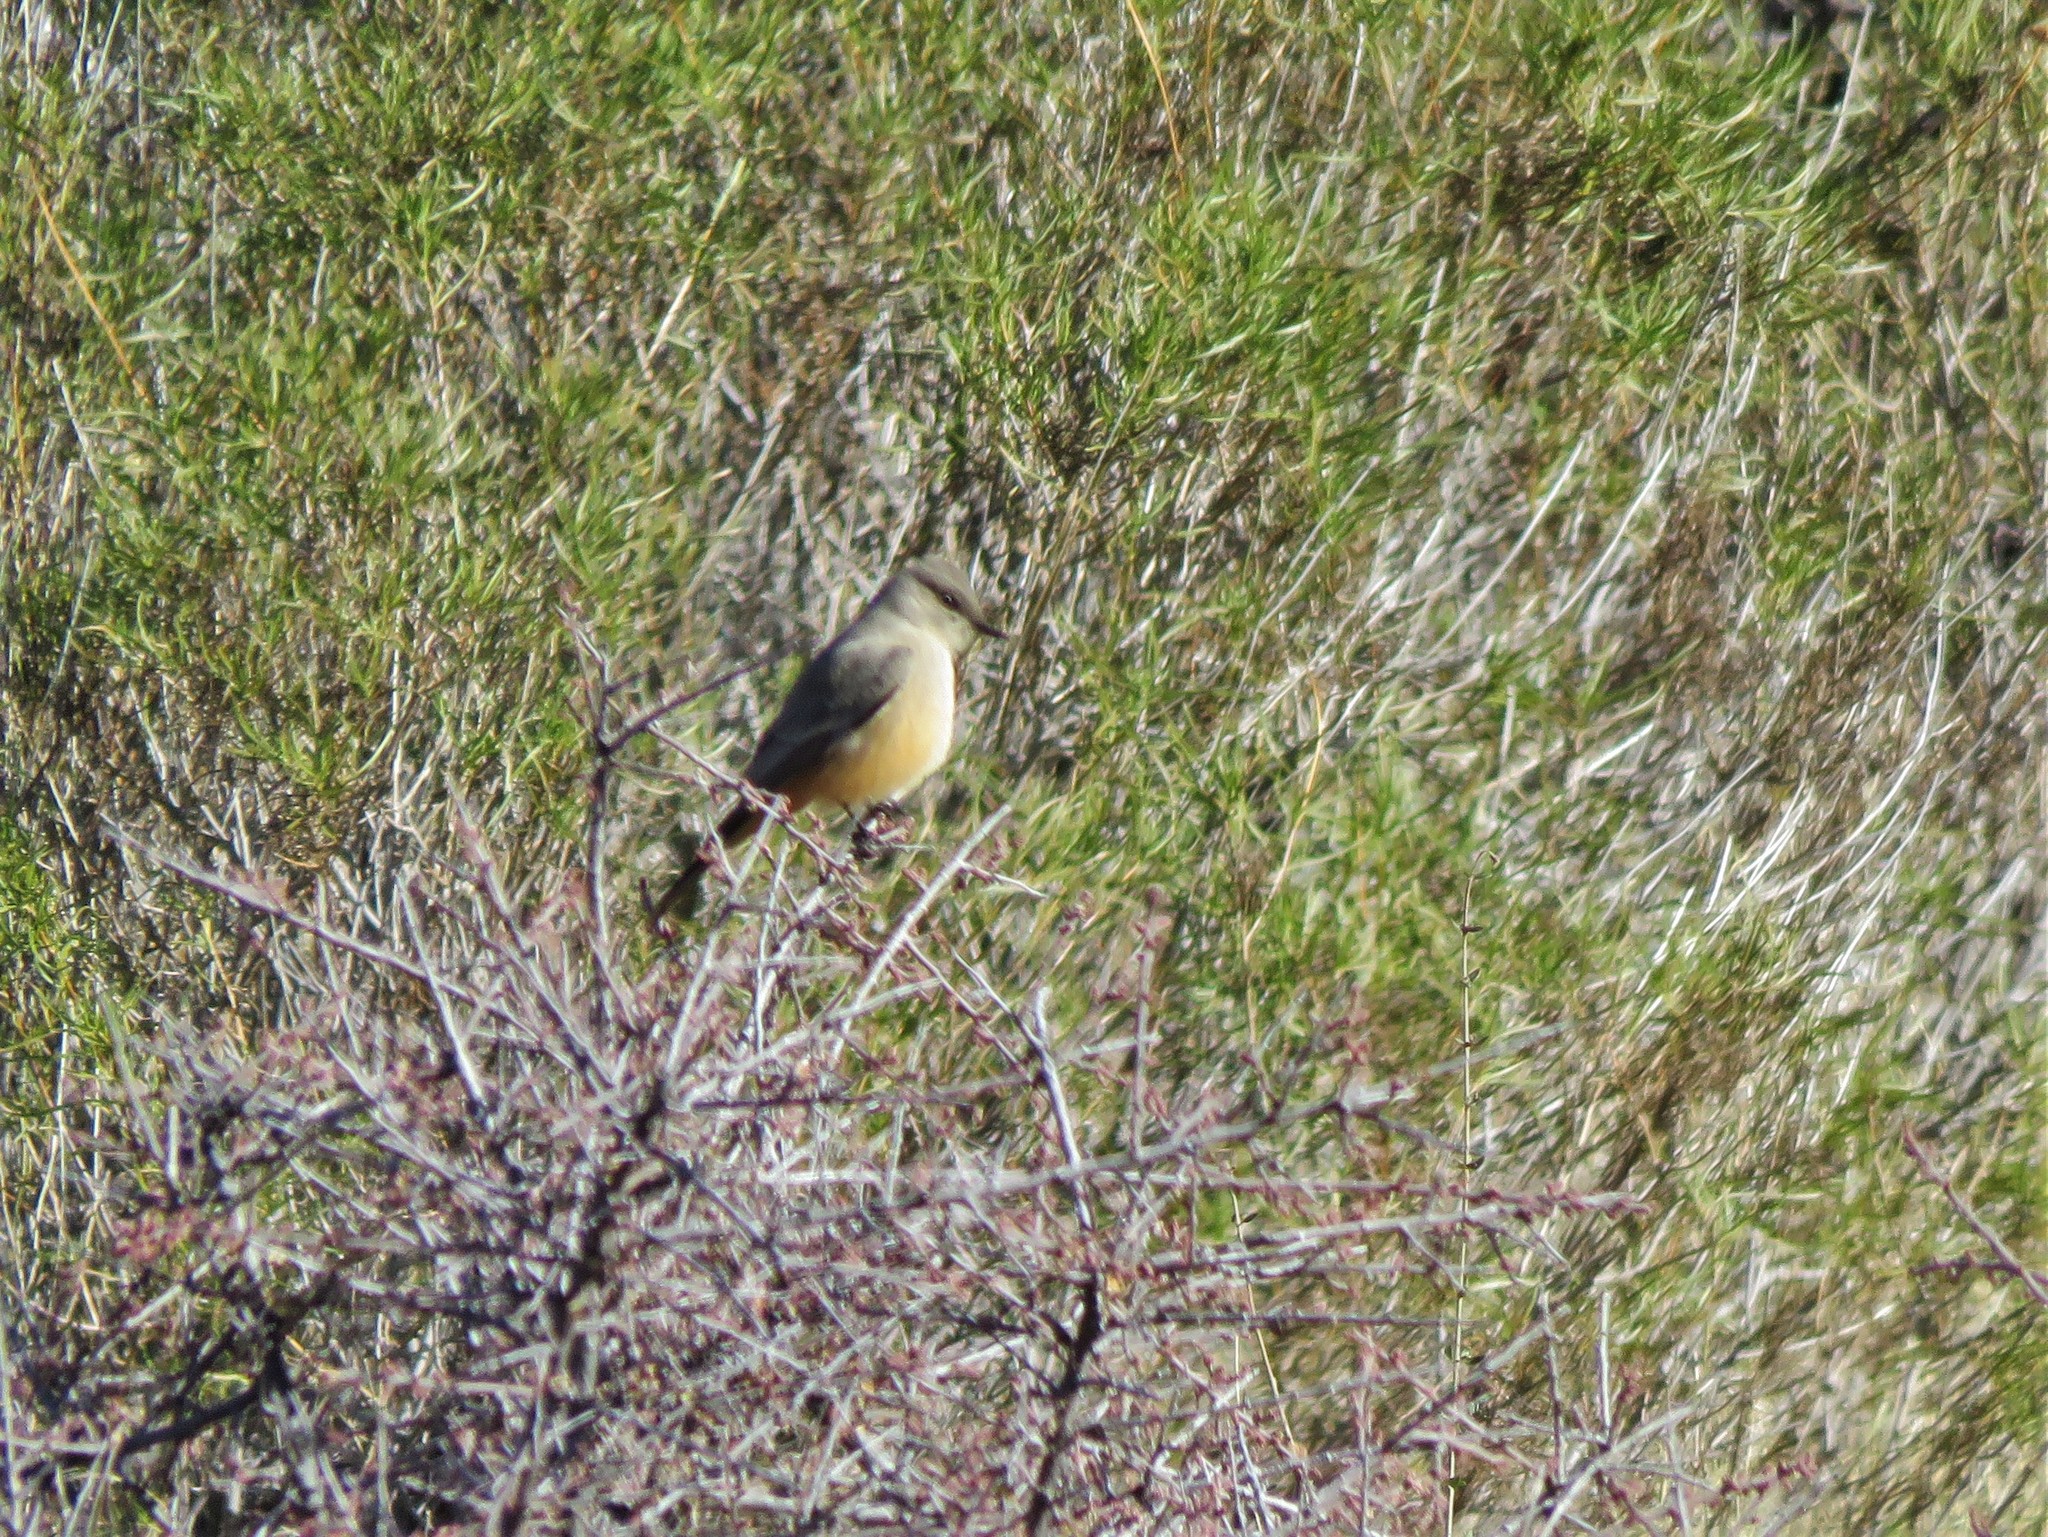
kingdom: Animalia
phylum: Chordata
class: Aves
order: Passeriformes
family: Tyrannidae
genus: Sayornis
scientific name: Sayornis saya
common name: Say's phoebe
